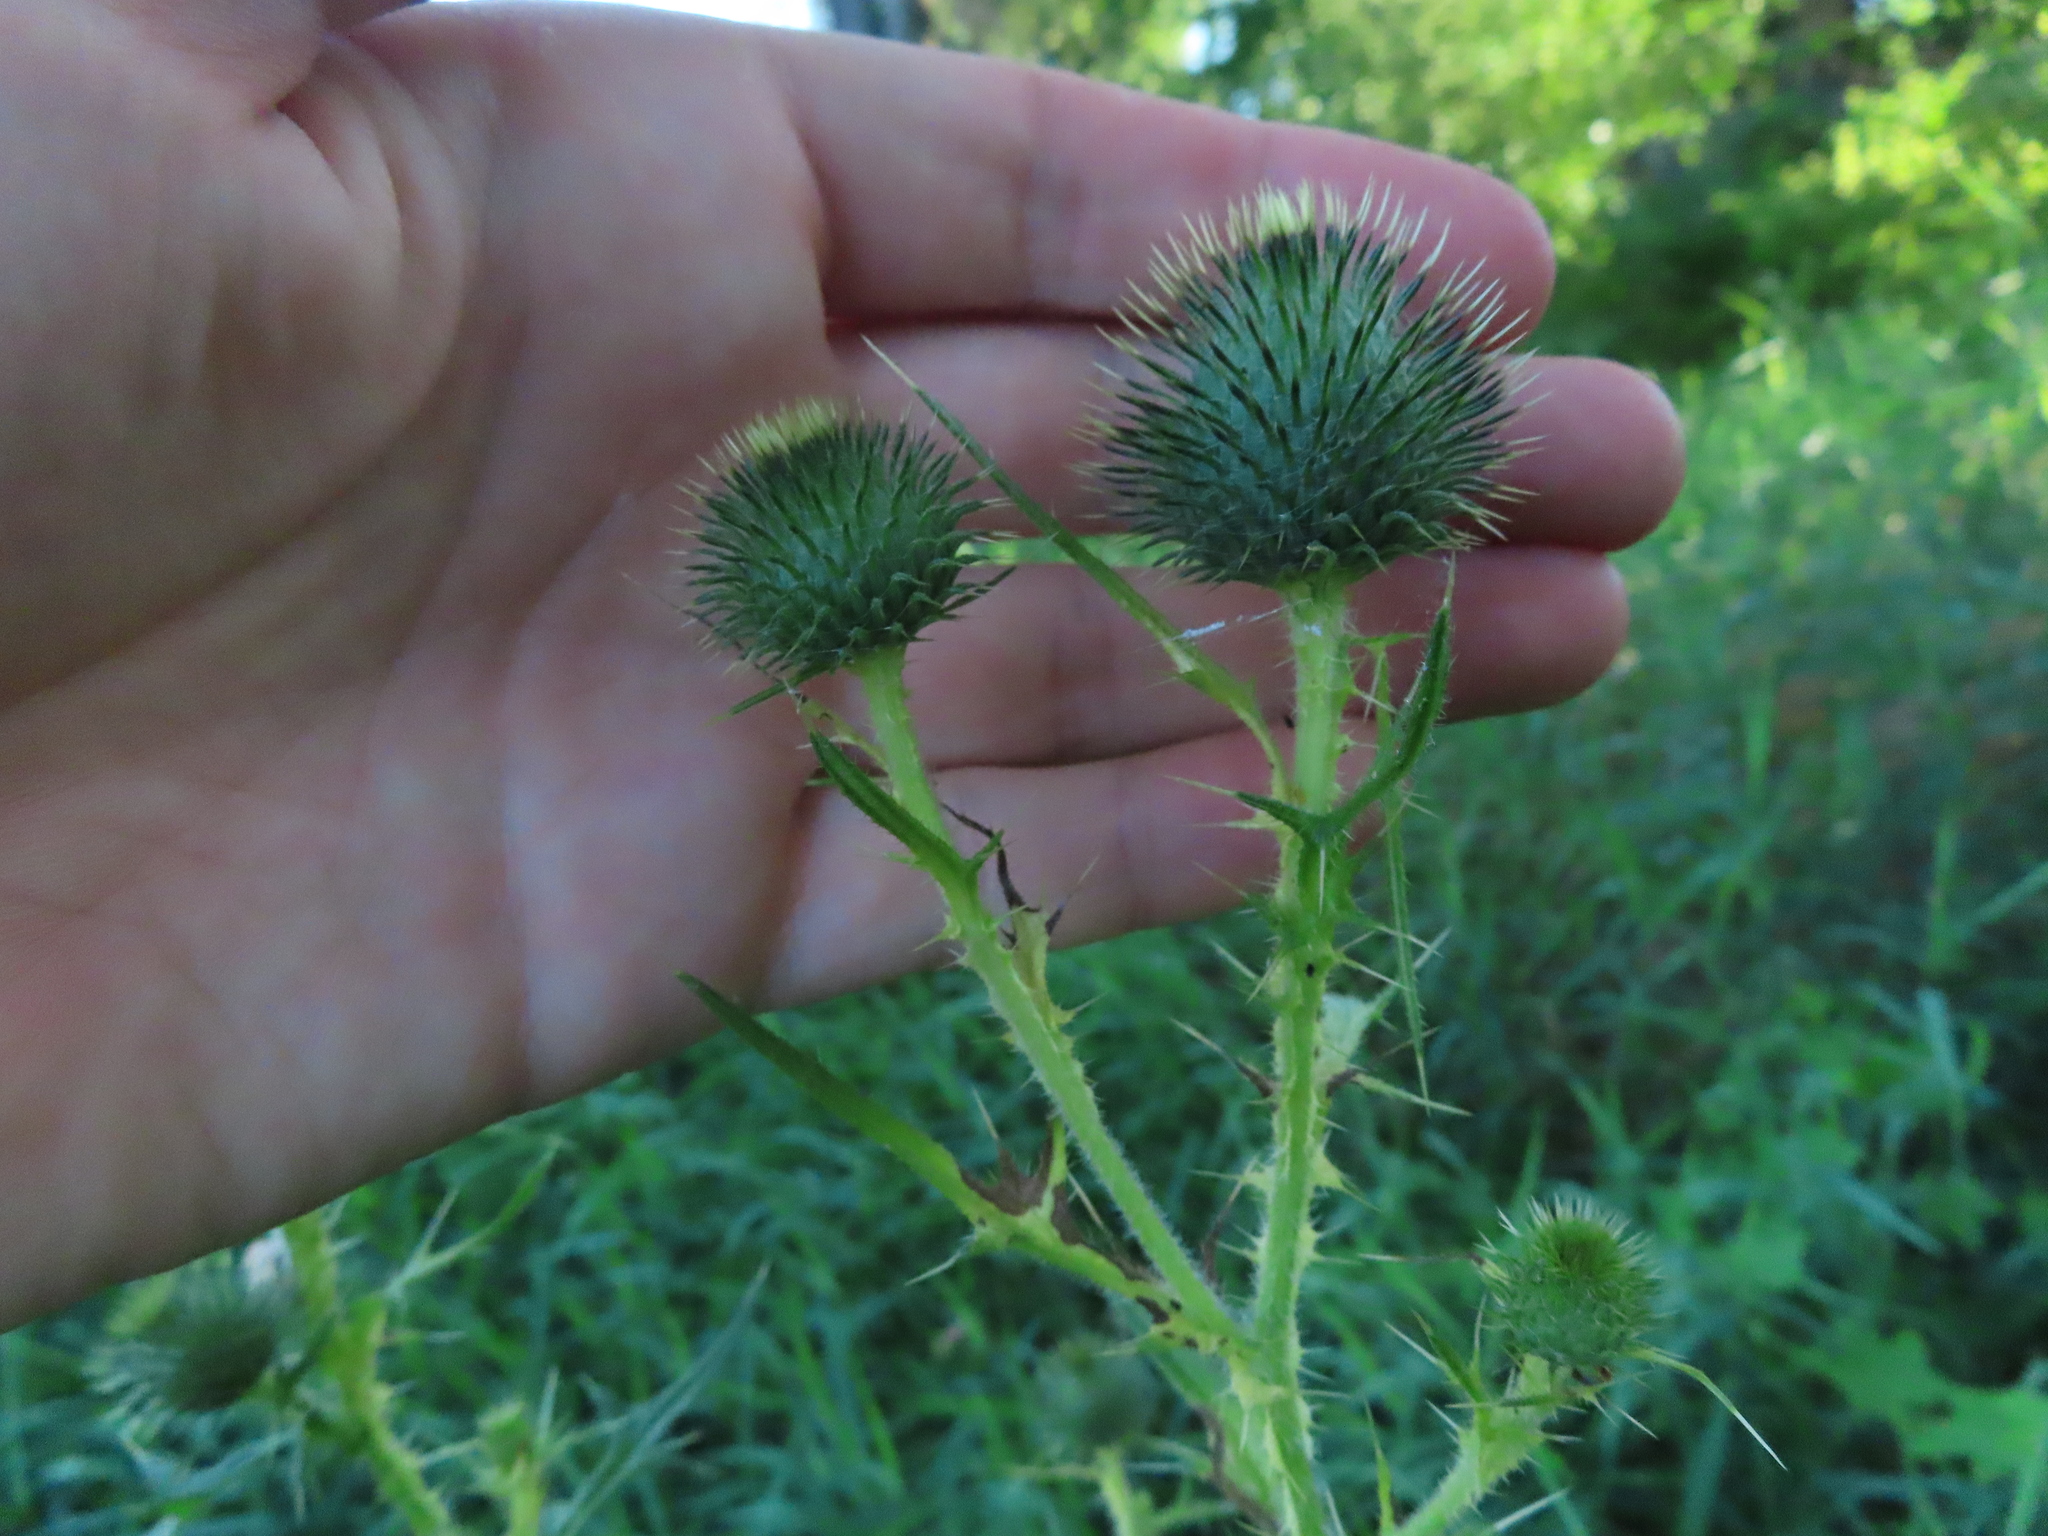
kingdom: Plantae
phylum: Tracheophyta
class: Magnoliopsida
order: Asterales
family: Asteraceae
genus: Cirsium
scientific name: Cirsium vulgare
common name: Bull thistle
